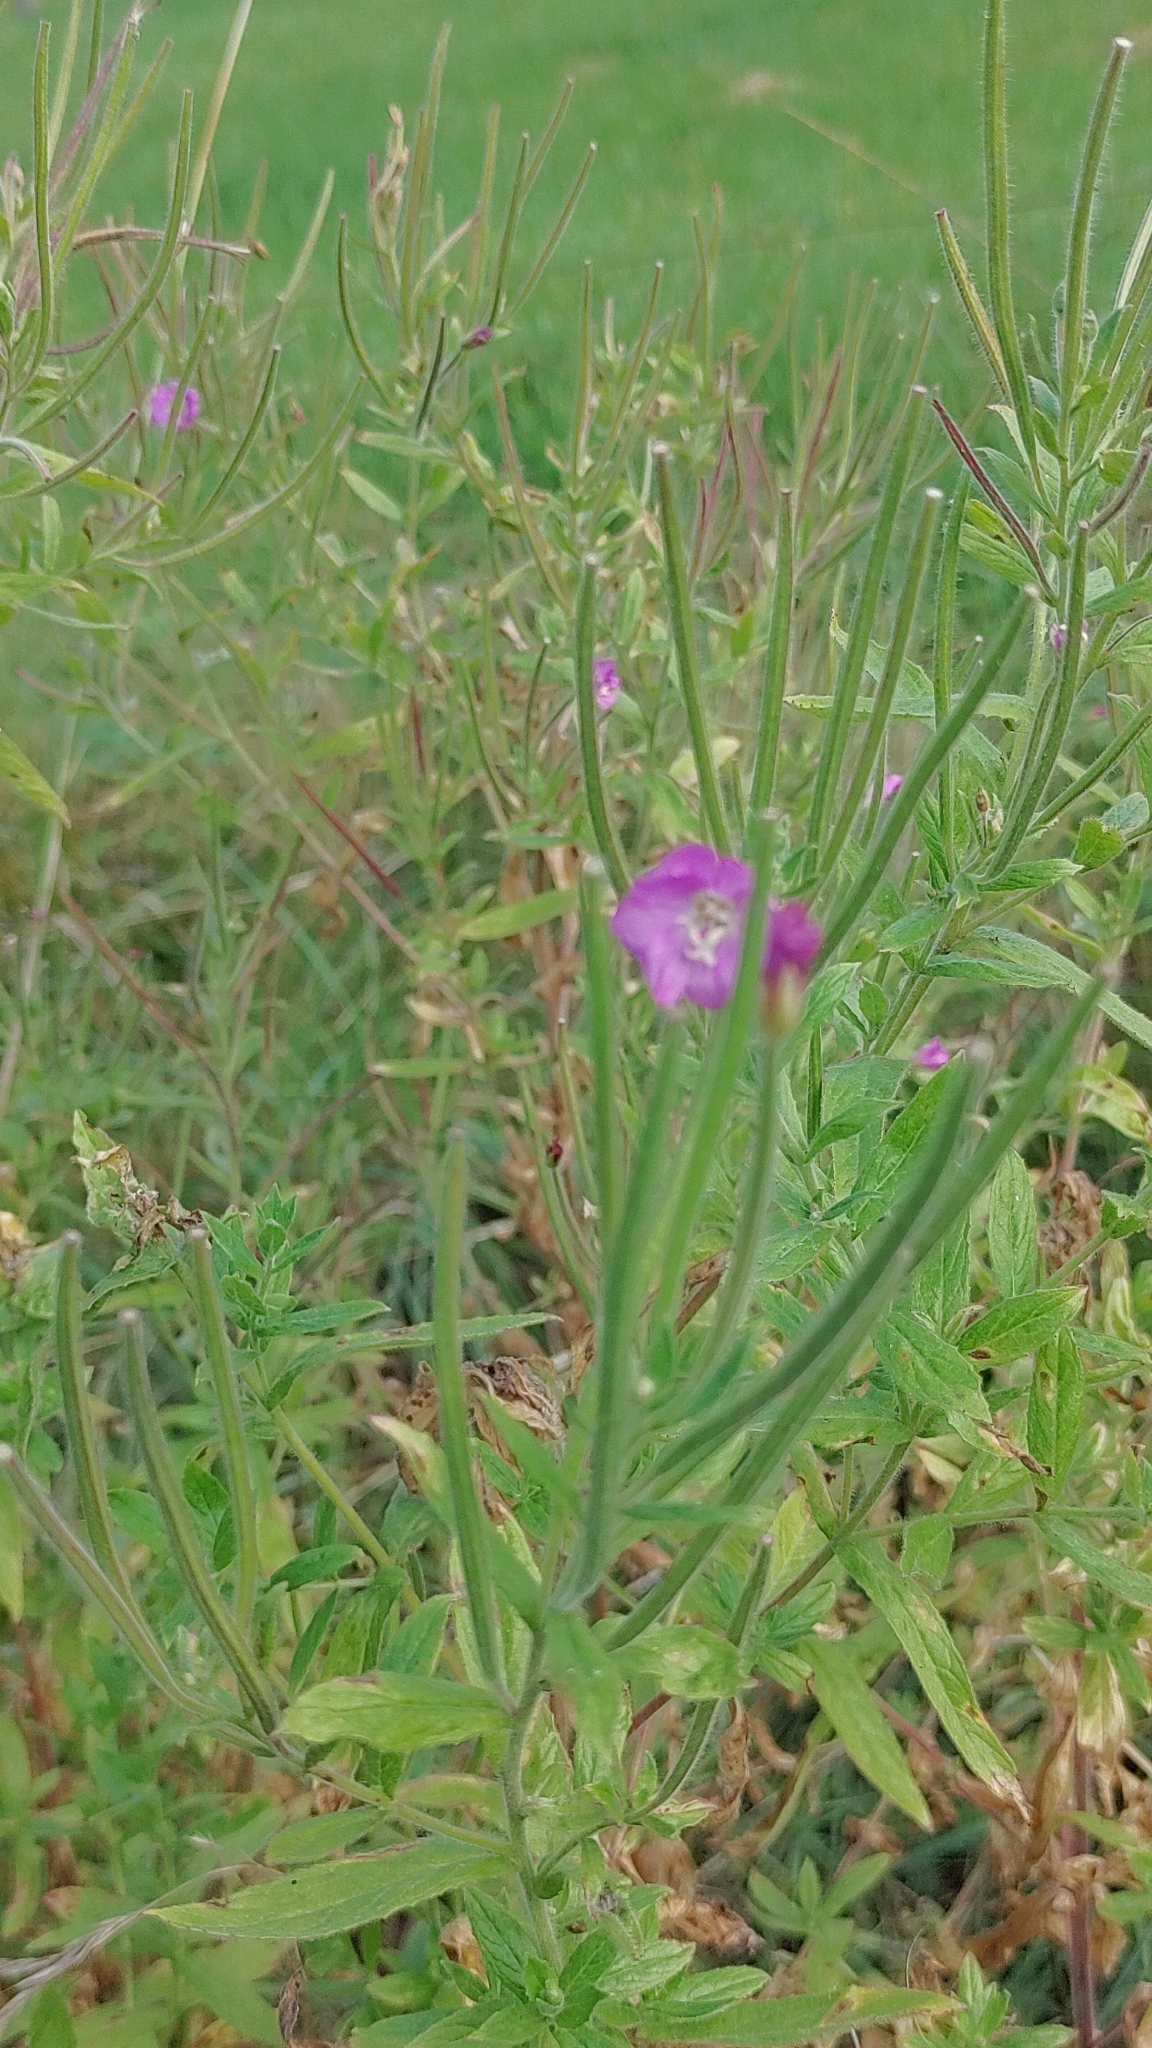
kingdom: Plantae
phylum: Tracheophyta
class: Magnoliopsida
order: Myrtales
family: Onagraceae
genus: Epilobium
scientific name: Epilobium hirsutum
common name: Great willowherb
